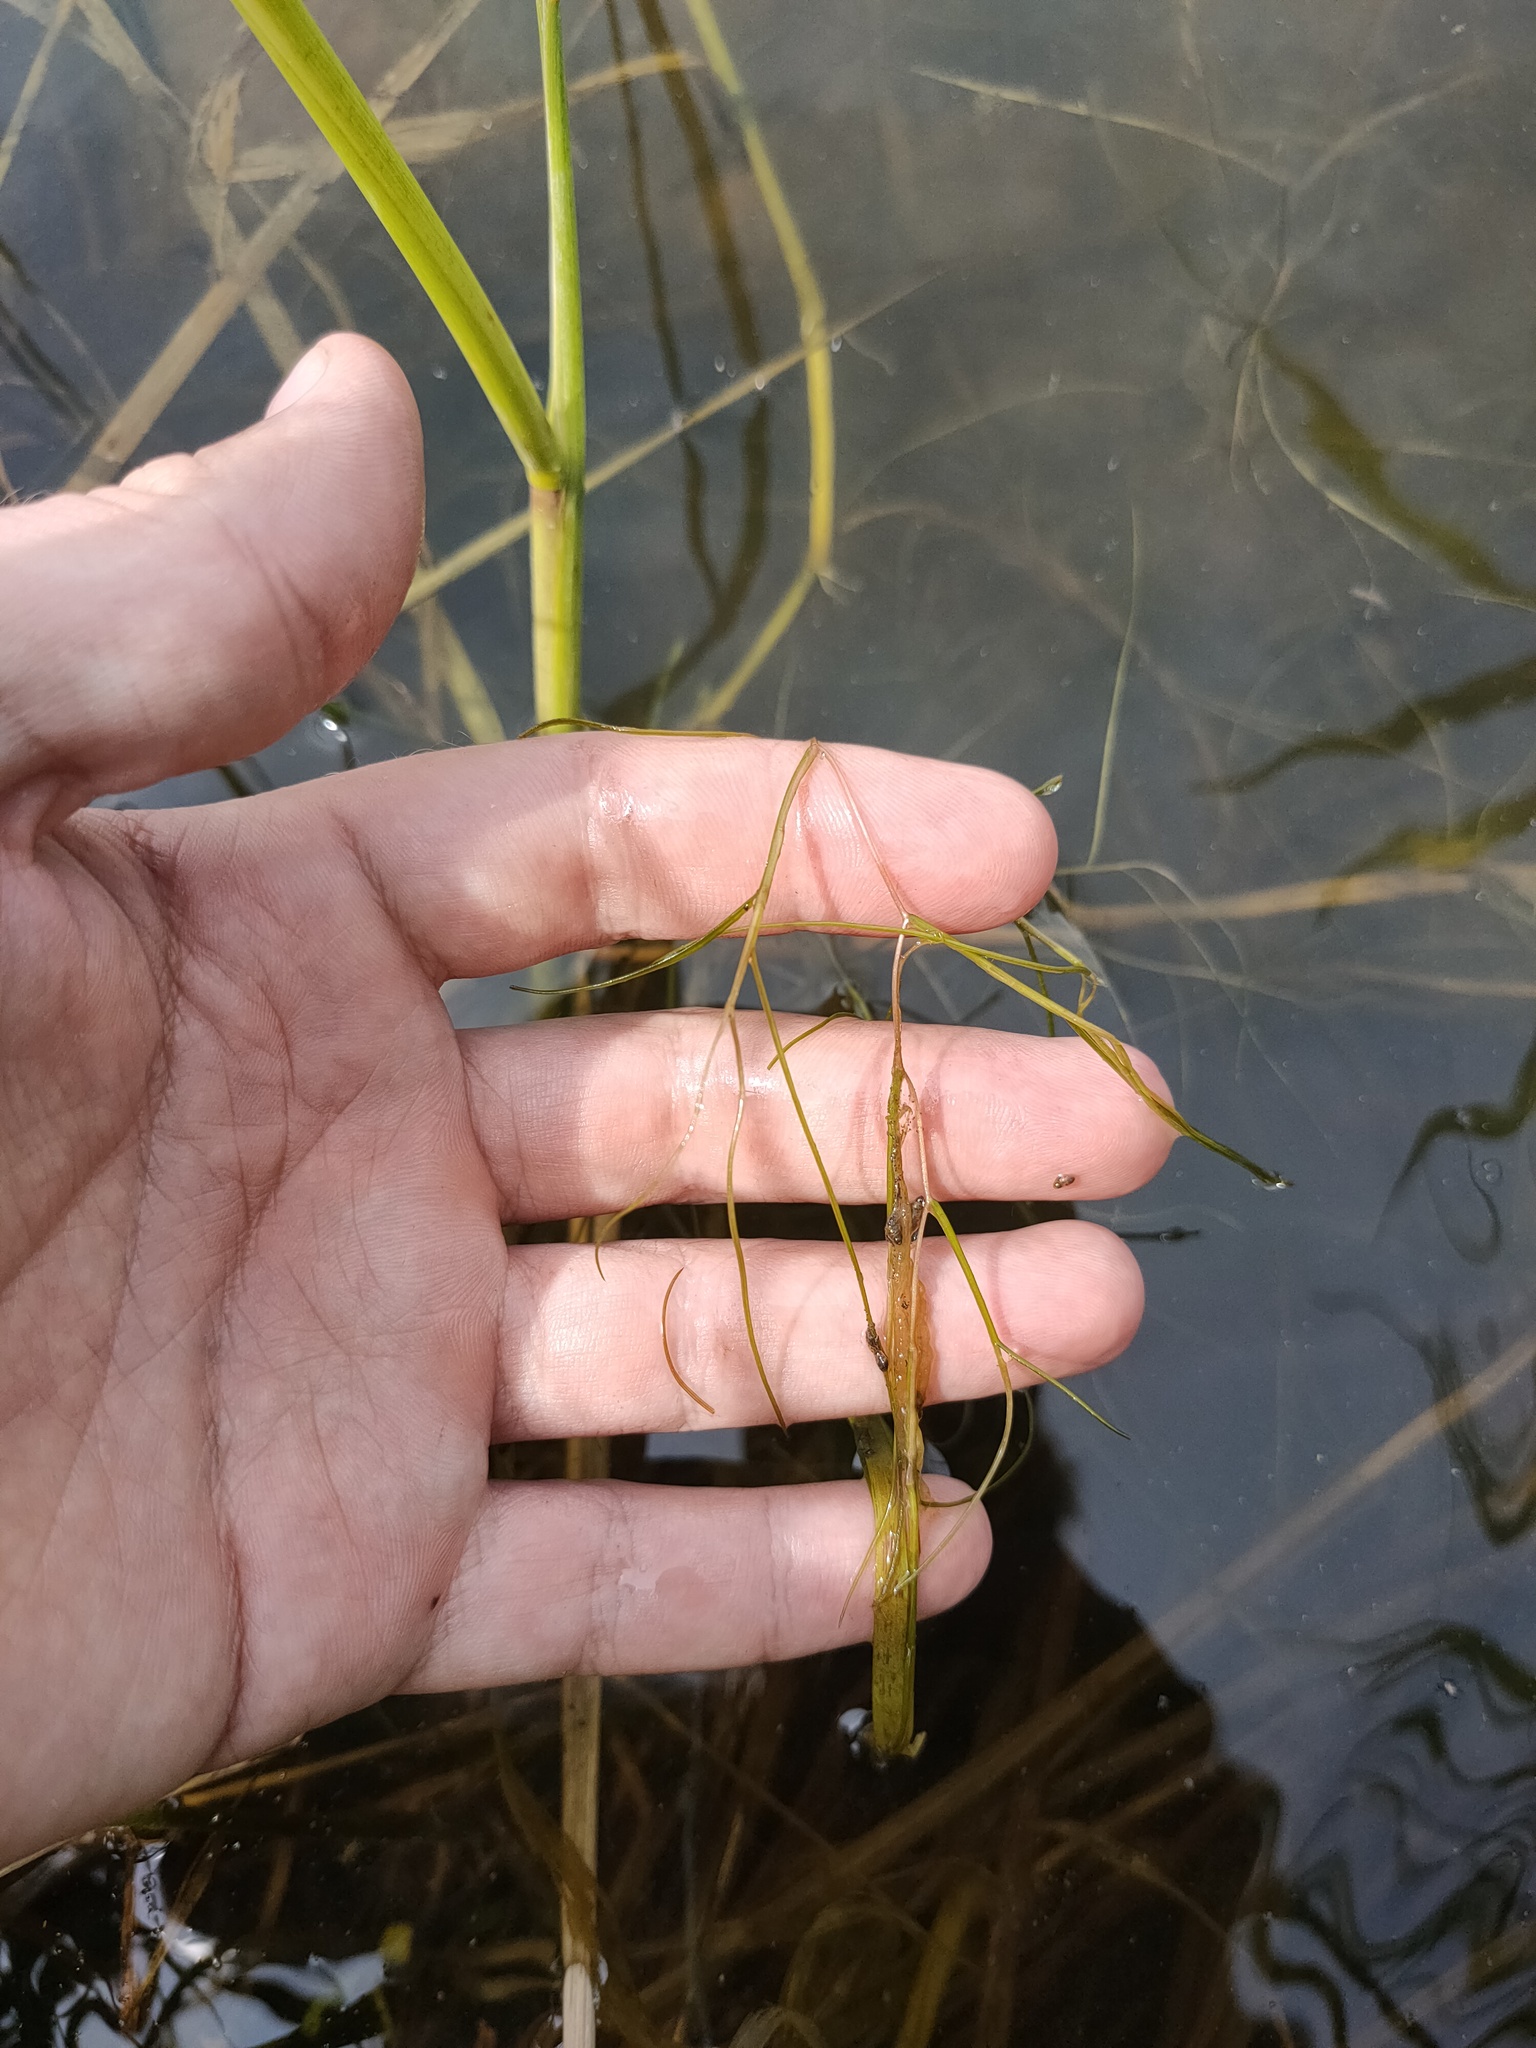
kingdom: Plantae
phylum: Tracheophyta
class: Liliopsida
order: Alismatales
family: Potamogetonaceae
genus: Stuckenia
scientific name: Stuckenia pectinata
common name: Sago pondweed
